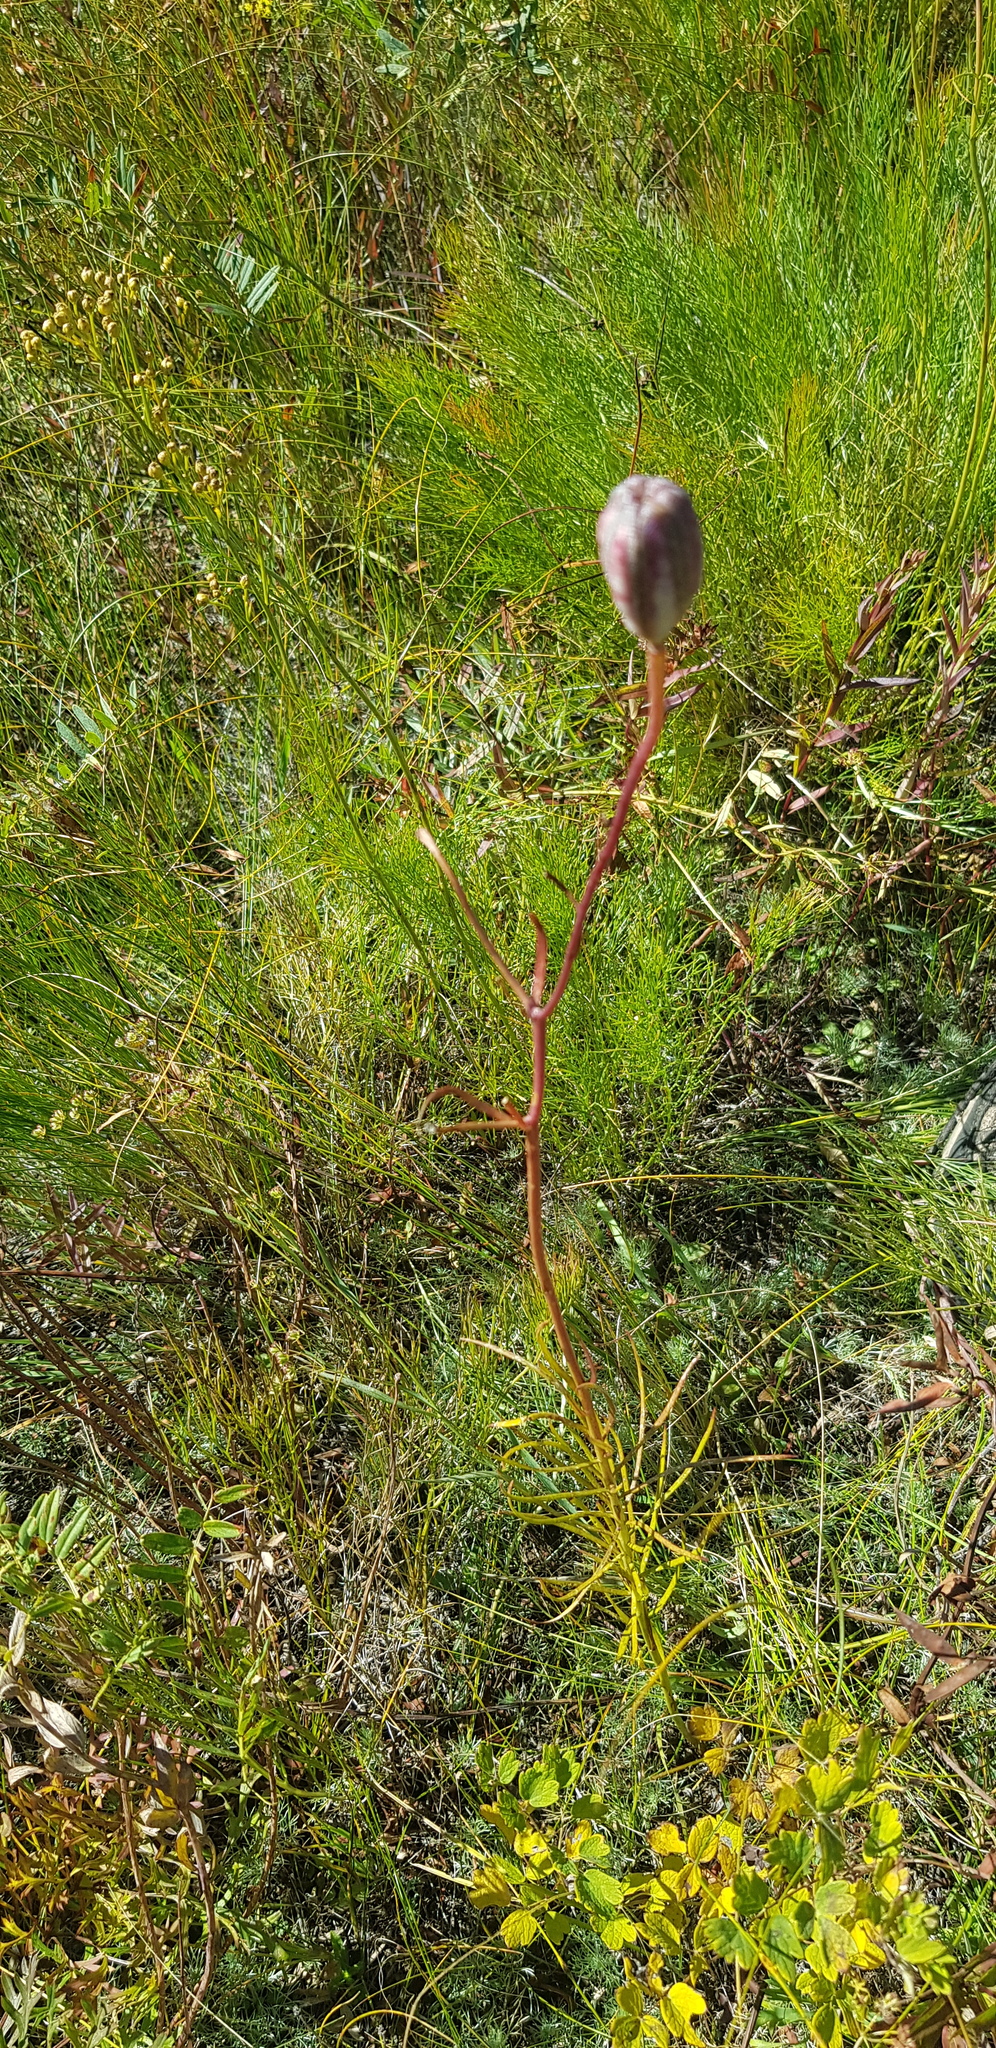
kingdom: Plantae
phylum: Tracheophyta
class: Liliopsida
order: Liliales
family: Liliaceae
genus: Lilium
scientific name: Lilium pumilum
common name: Coral lily
